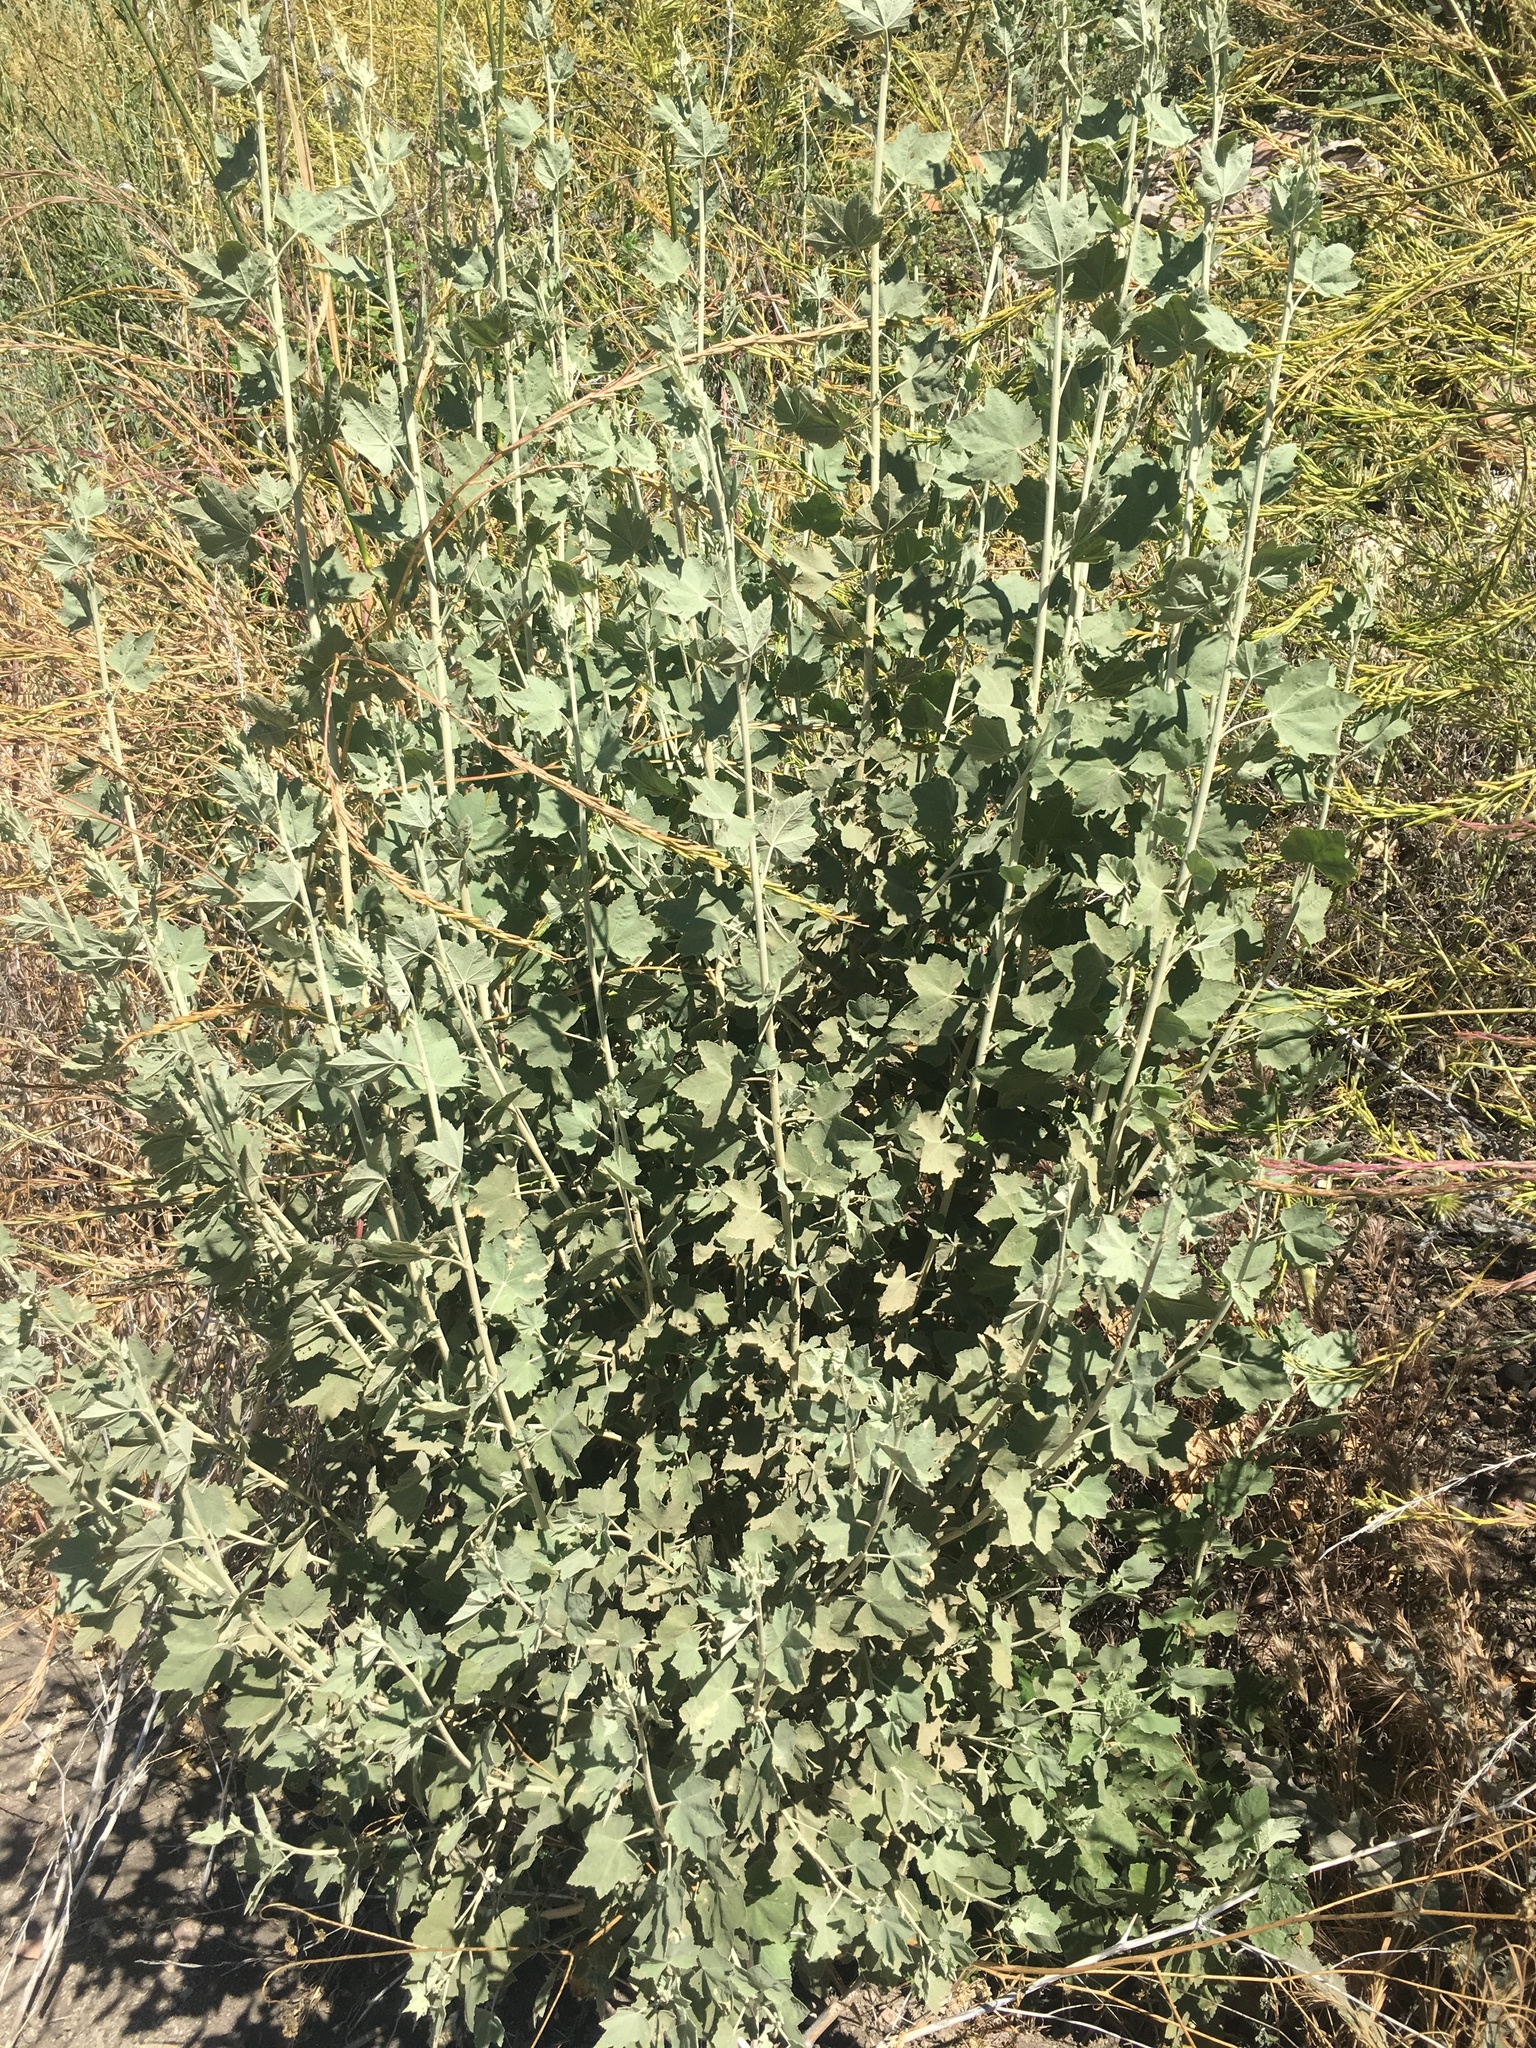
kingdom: Plantae
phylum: Tracheophyta
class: Magnoliopsida
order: Malvales
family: Malvaceae
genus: Malacothamnus
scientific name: Malacothamnus fasciculatus
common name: Sant cruz island bush-mallow
